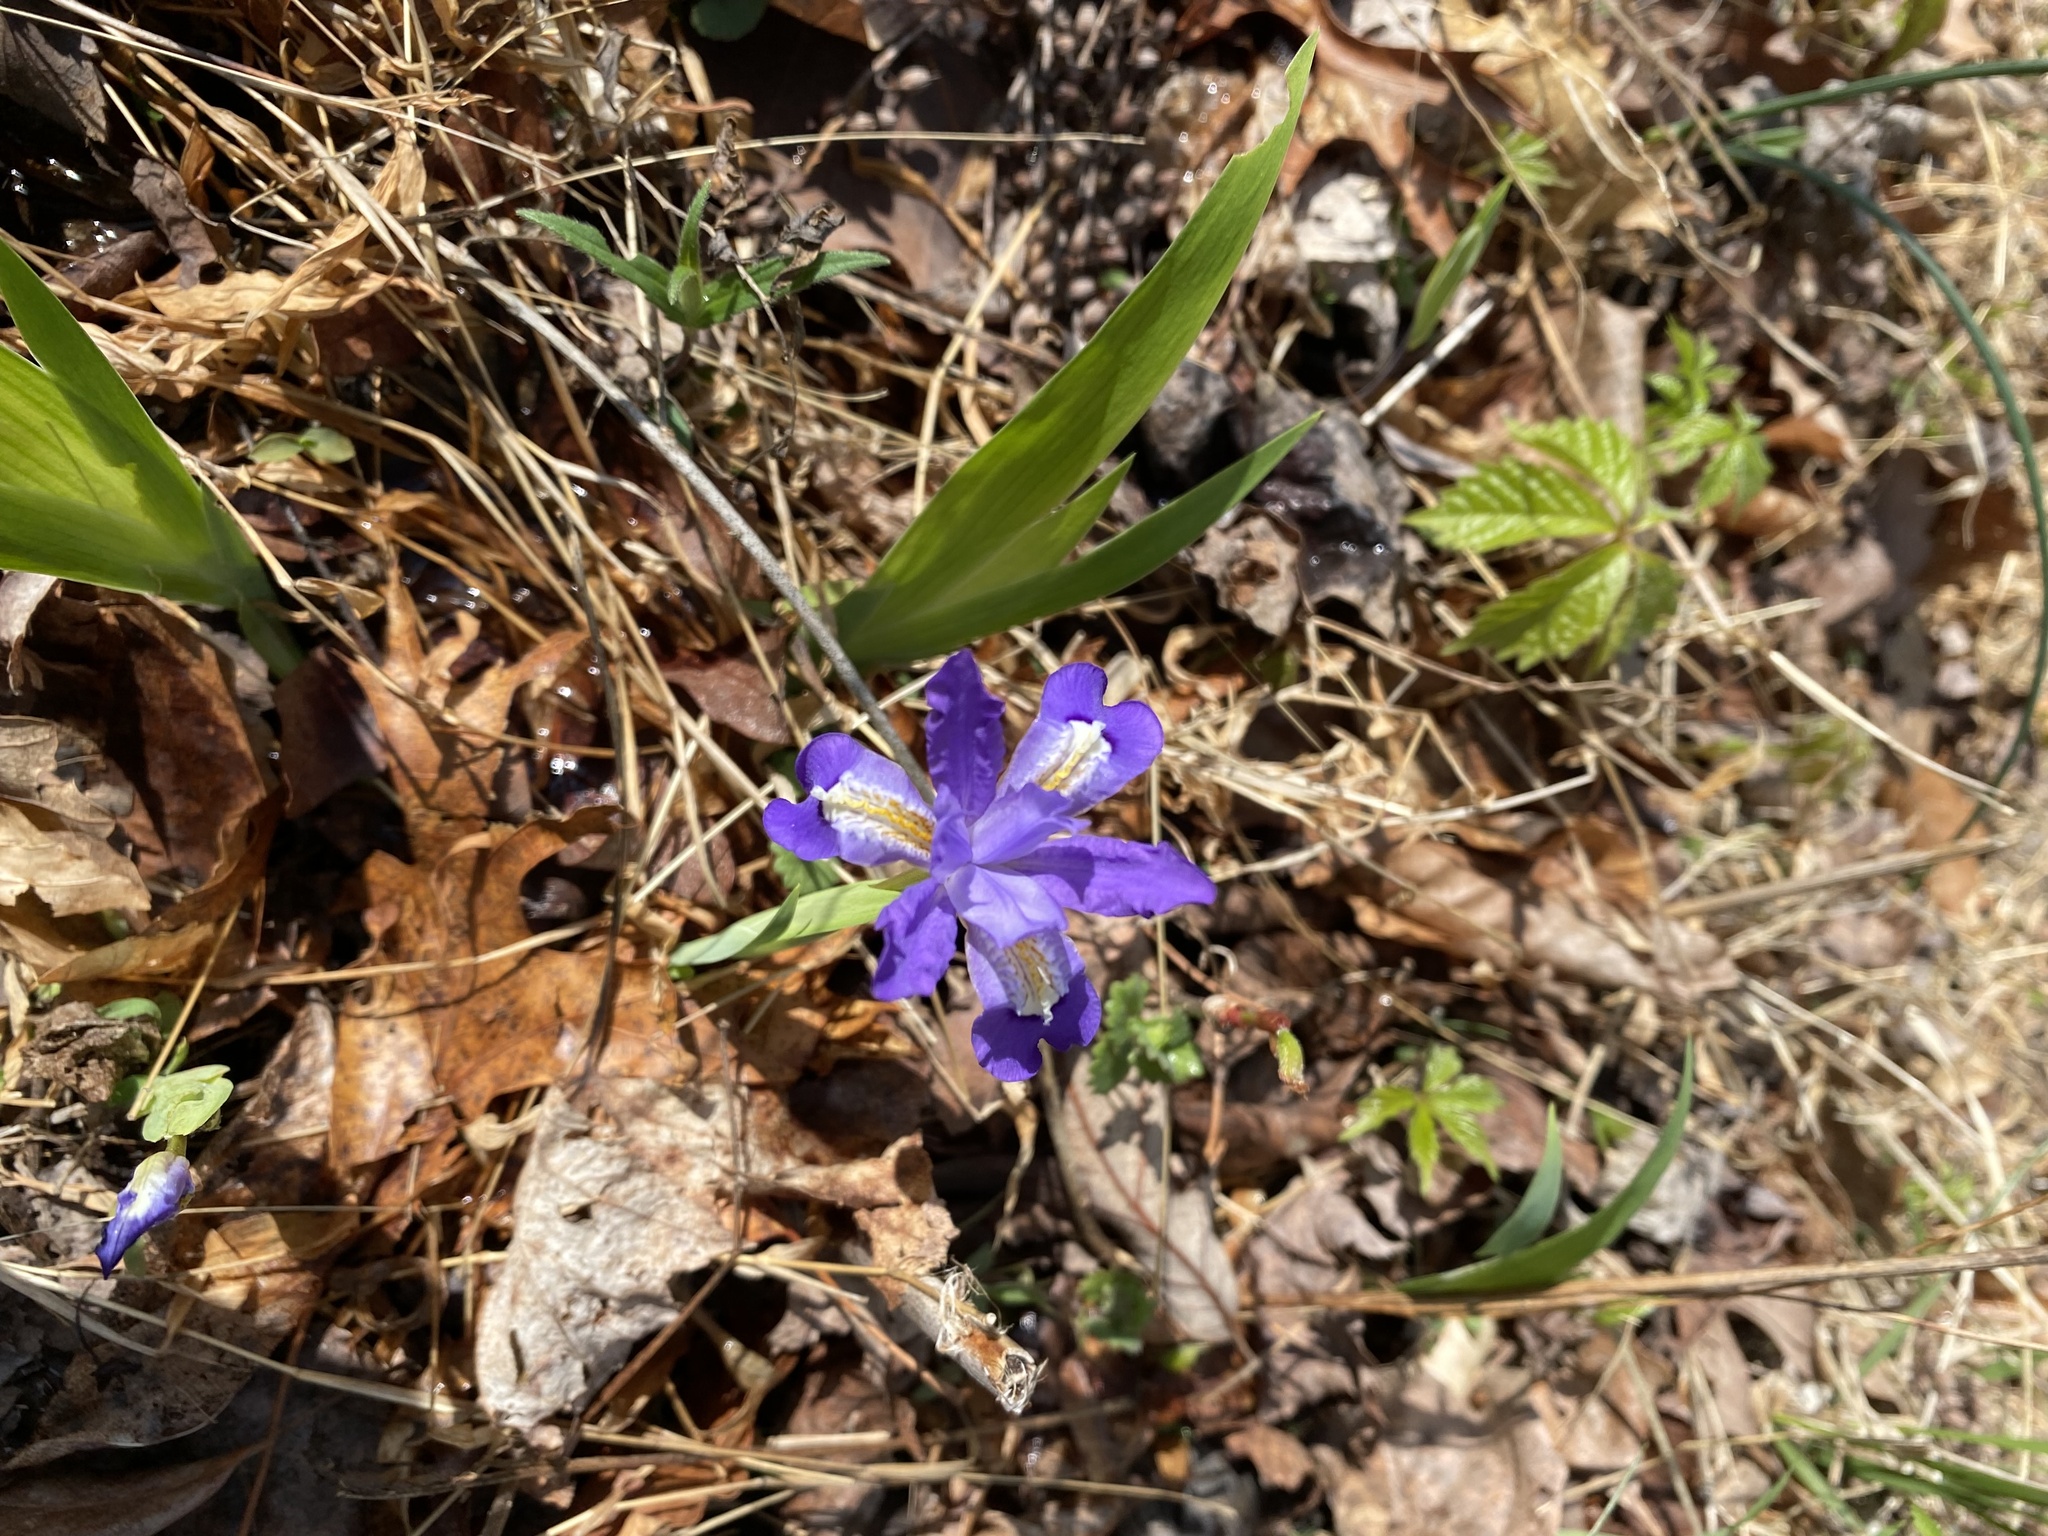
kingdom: Plantae
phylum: Tracheophyta
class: Liliopsida
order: Asparagales
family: Iridaceae
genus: Iris
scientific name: Iris cristata
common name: Crested iris
